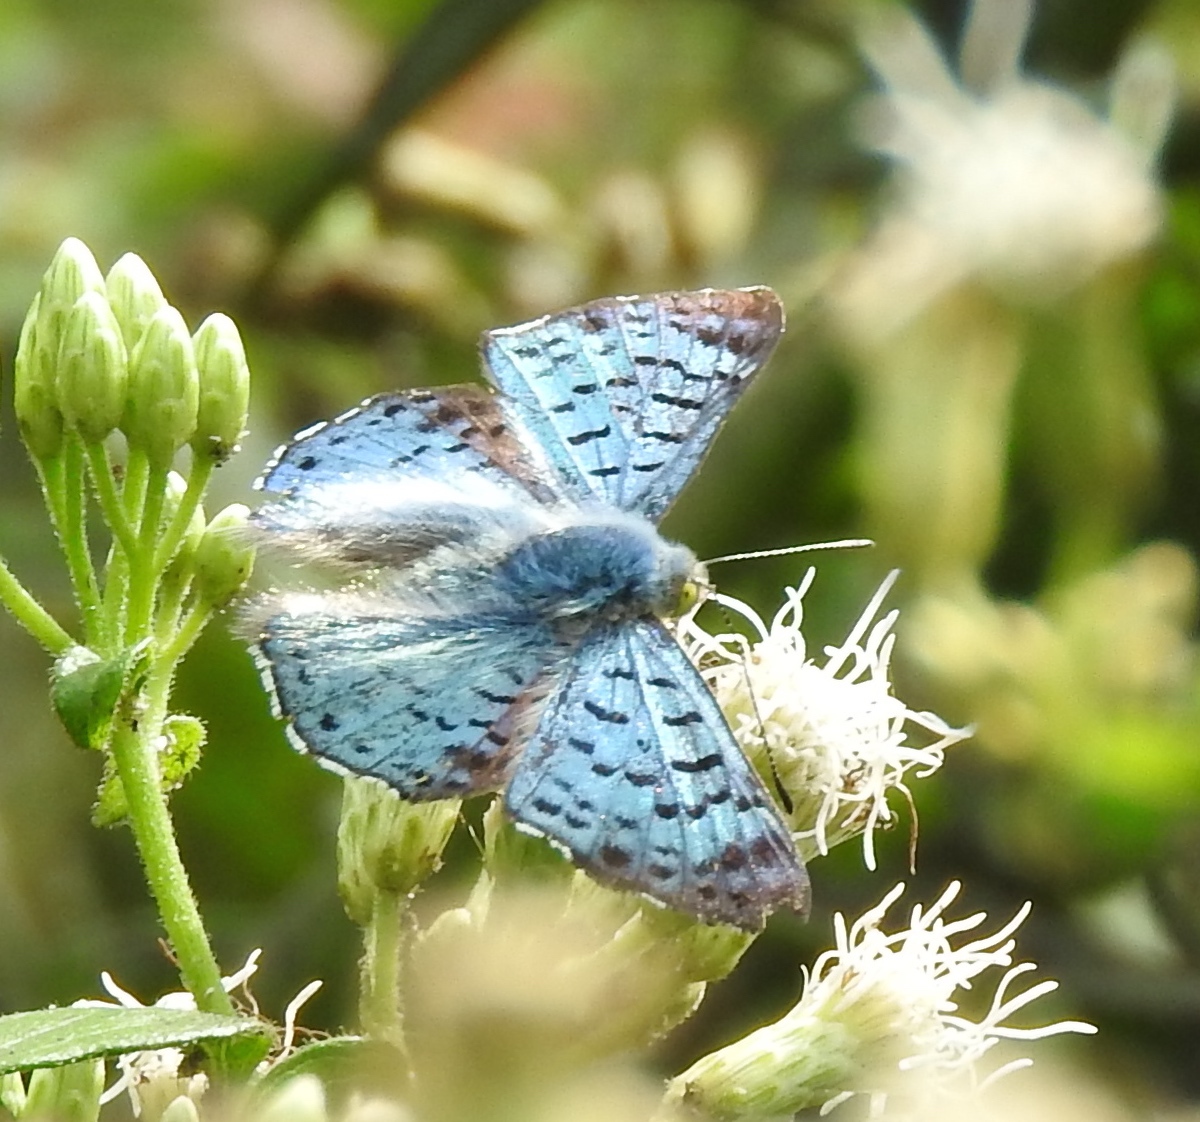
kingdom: Animalia
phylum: Arthropoda
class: Insecta
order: Lepidoptera
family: Riodinidae
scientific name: Riodinidae
